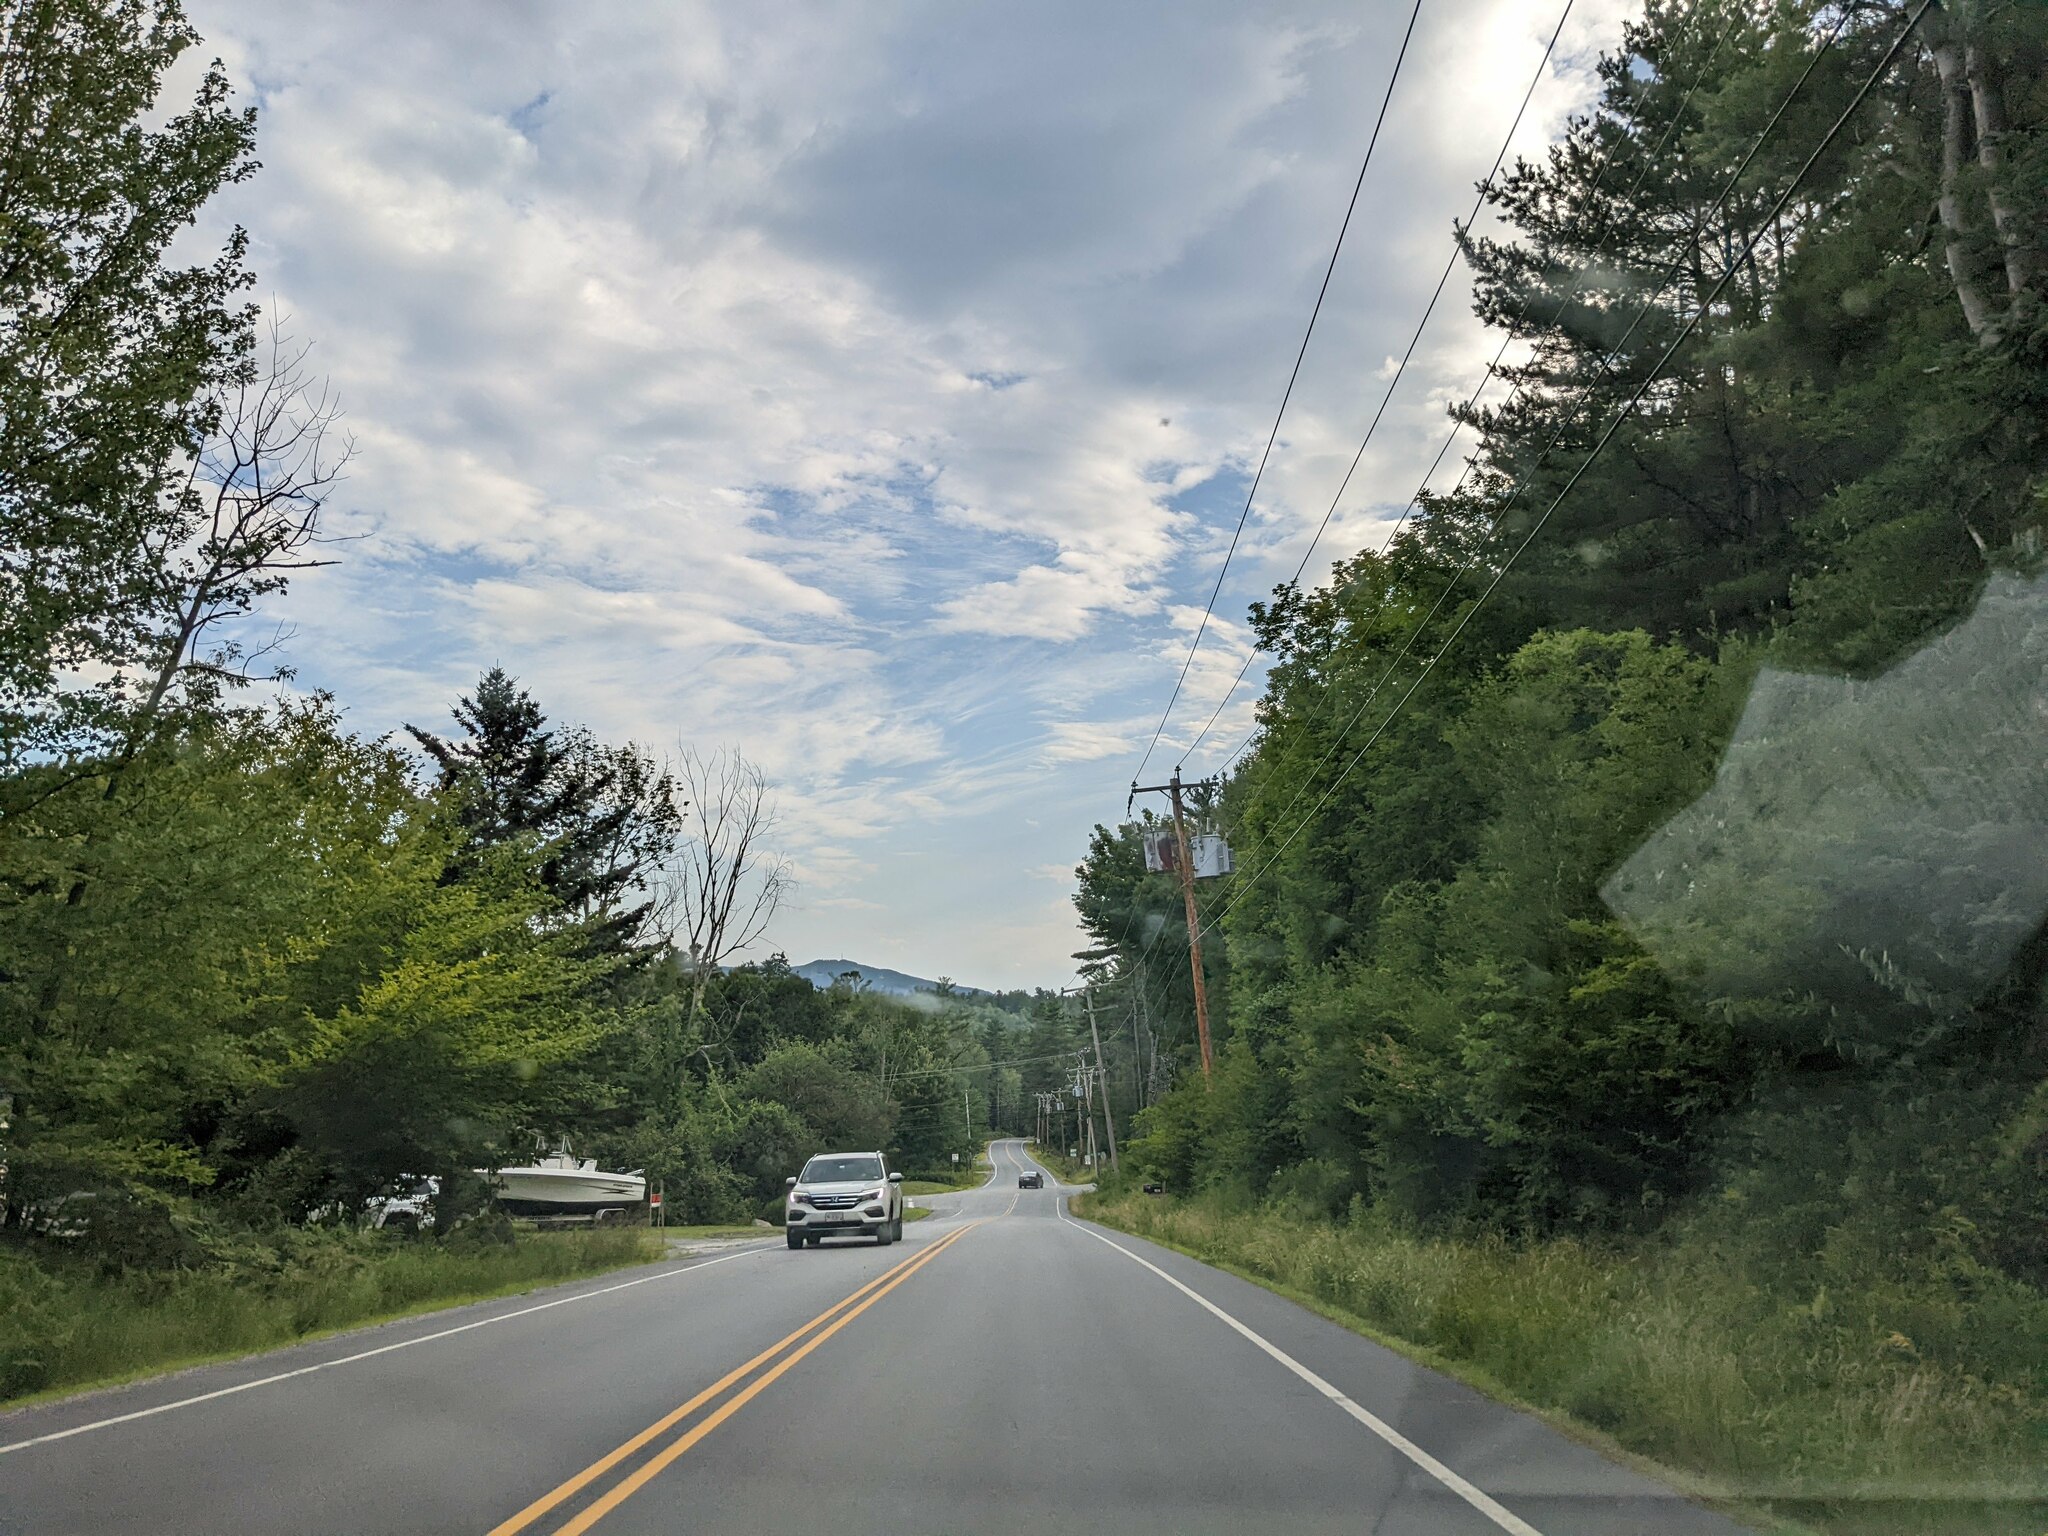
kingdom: Plantae
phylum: Tracheophyta
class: Pinopsida
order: Pinales
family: Pinaceae
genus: Pinus
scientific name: Pinus strobus
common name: Weymouth pine
